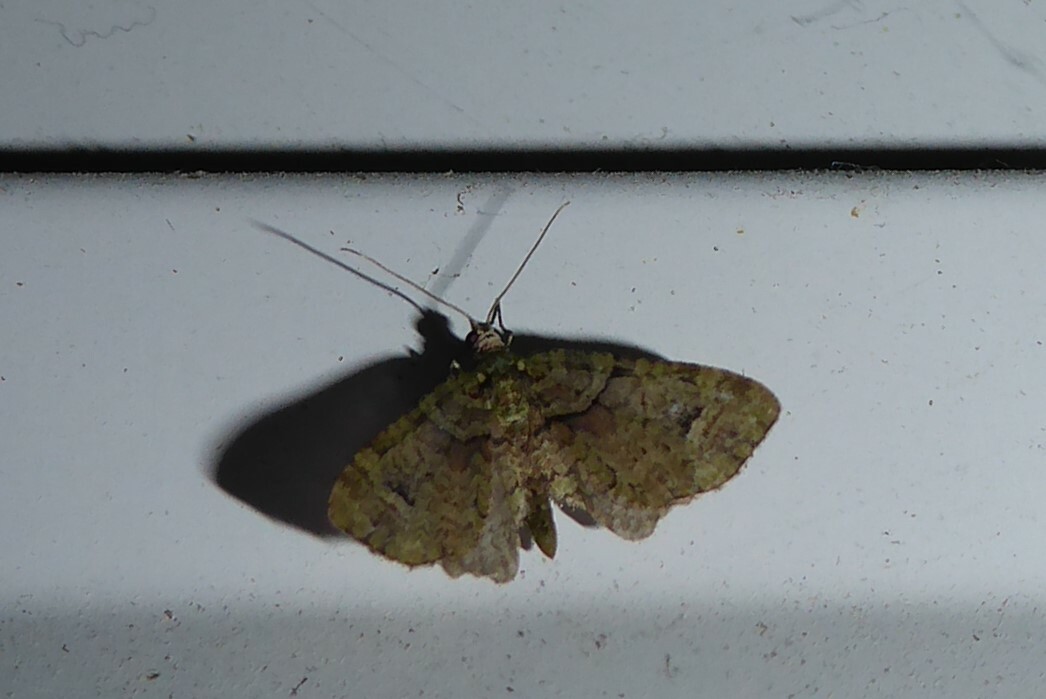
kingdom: Animalia
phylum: Arthropoda
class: Insecta
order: Lepidoptera
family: Geometridae
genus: Idaea
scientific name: Idaea mutanda
